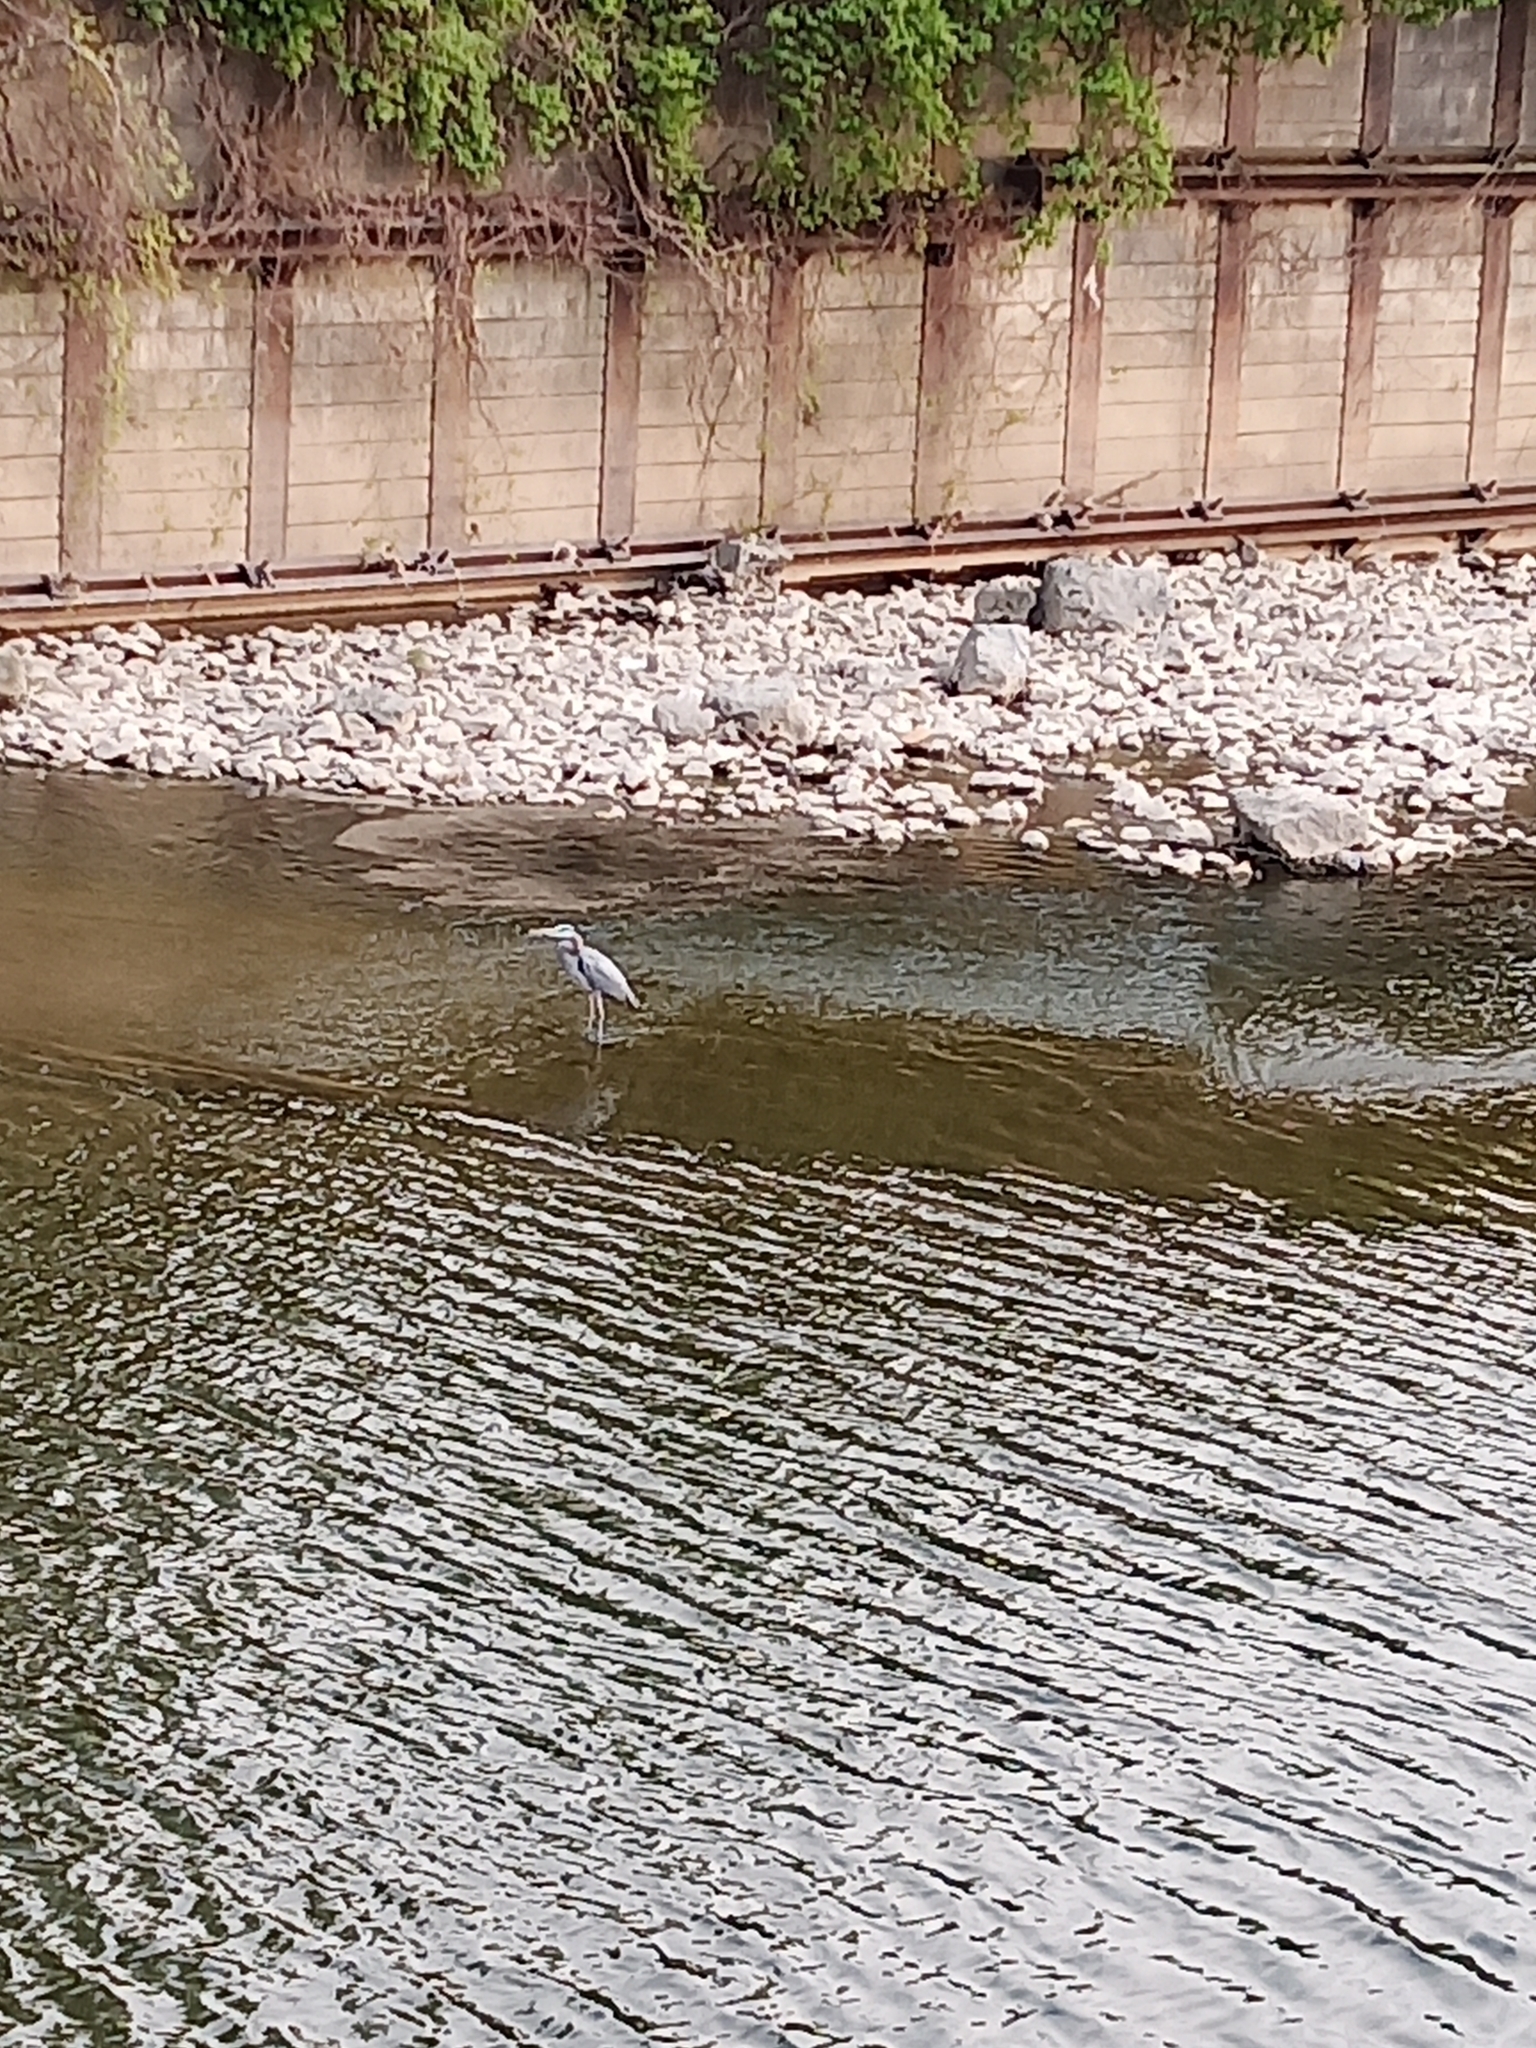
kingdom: Animalia
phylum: Chordata
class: Aves
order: Pelecaniformes
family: Ardeidae
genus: Ardea
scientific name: Ardea herodias
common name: Great blue heron
